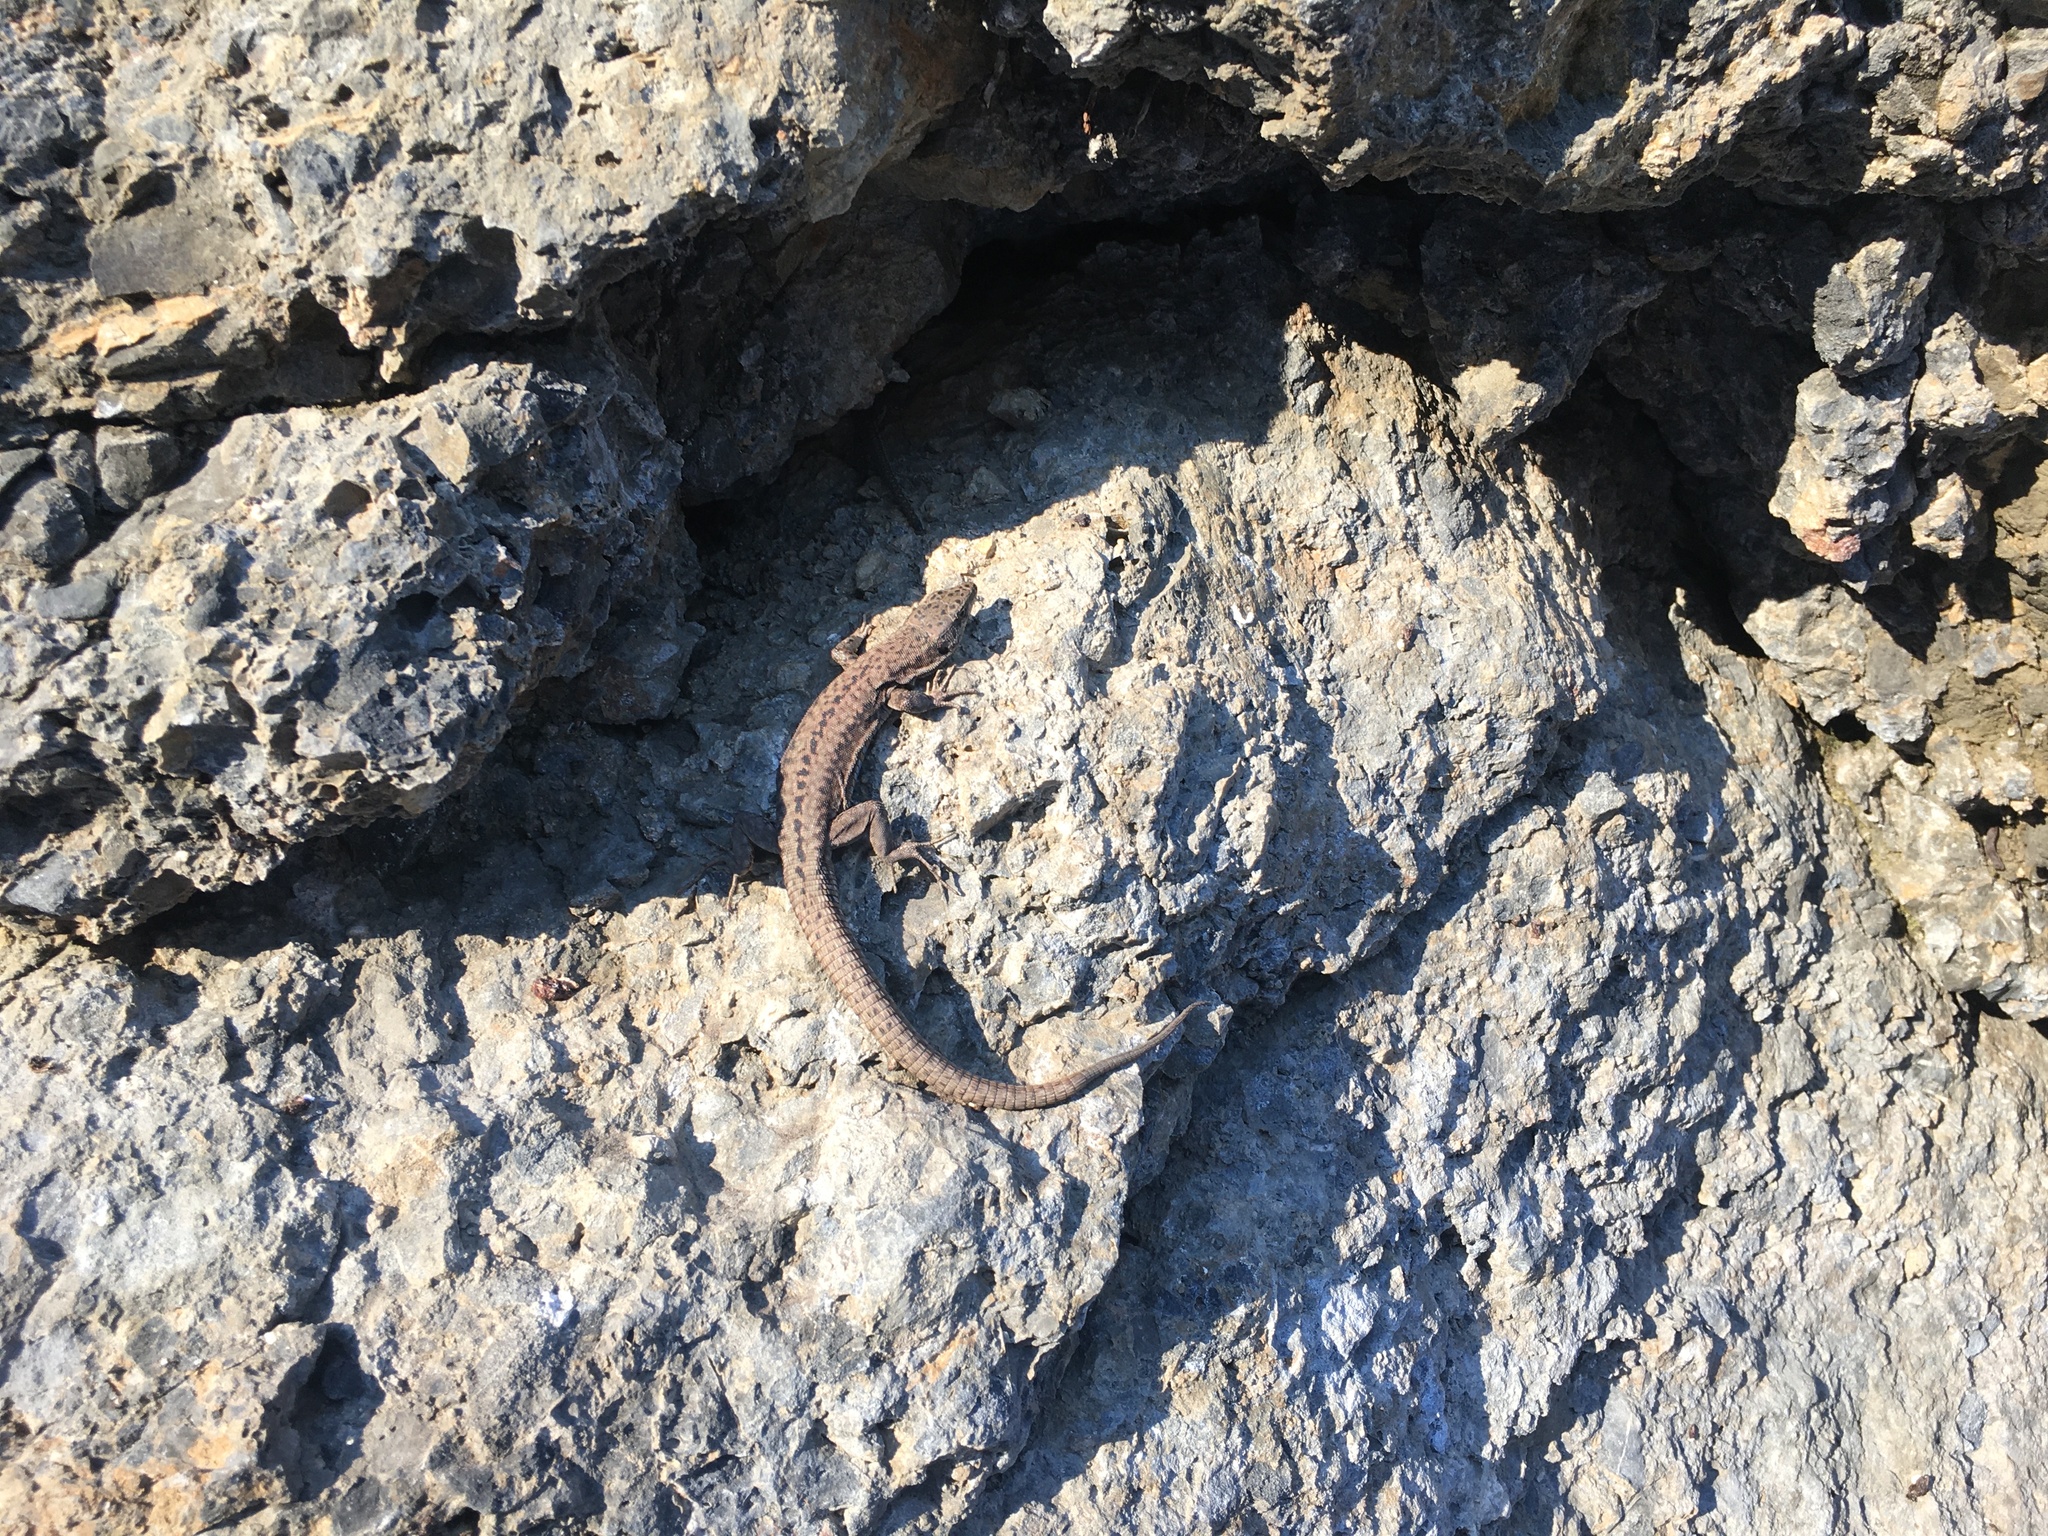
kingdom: Animalia
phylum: Chordata
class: Squamata
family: Lacertidae
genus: Podarcis
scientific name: Podarcis muralis
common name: Common wall lizard
